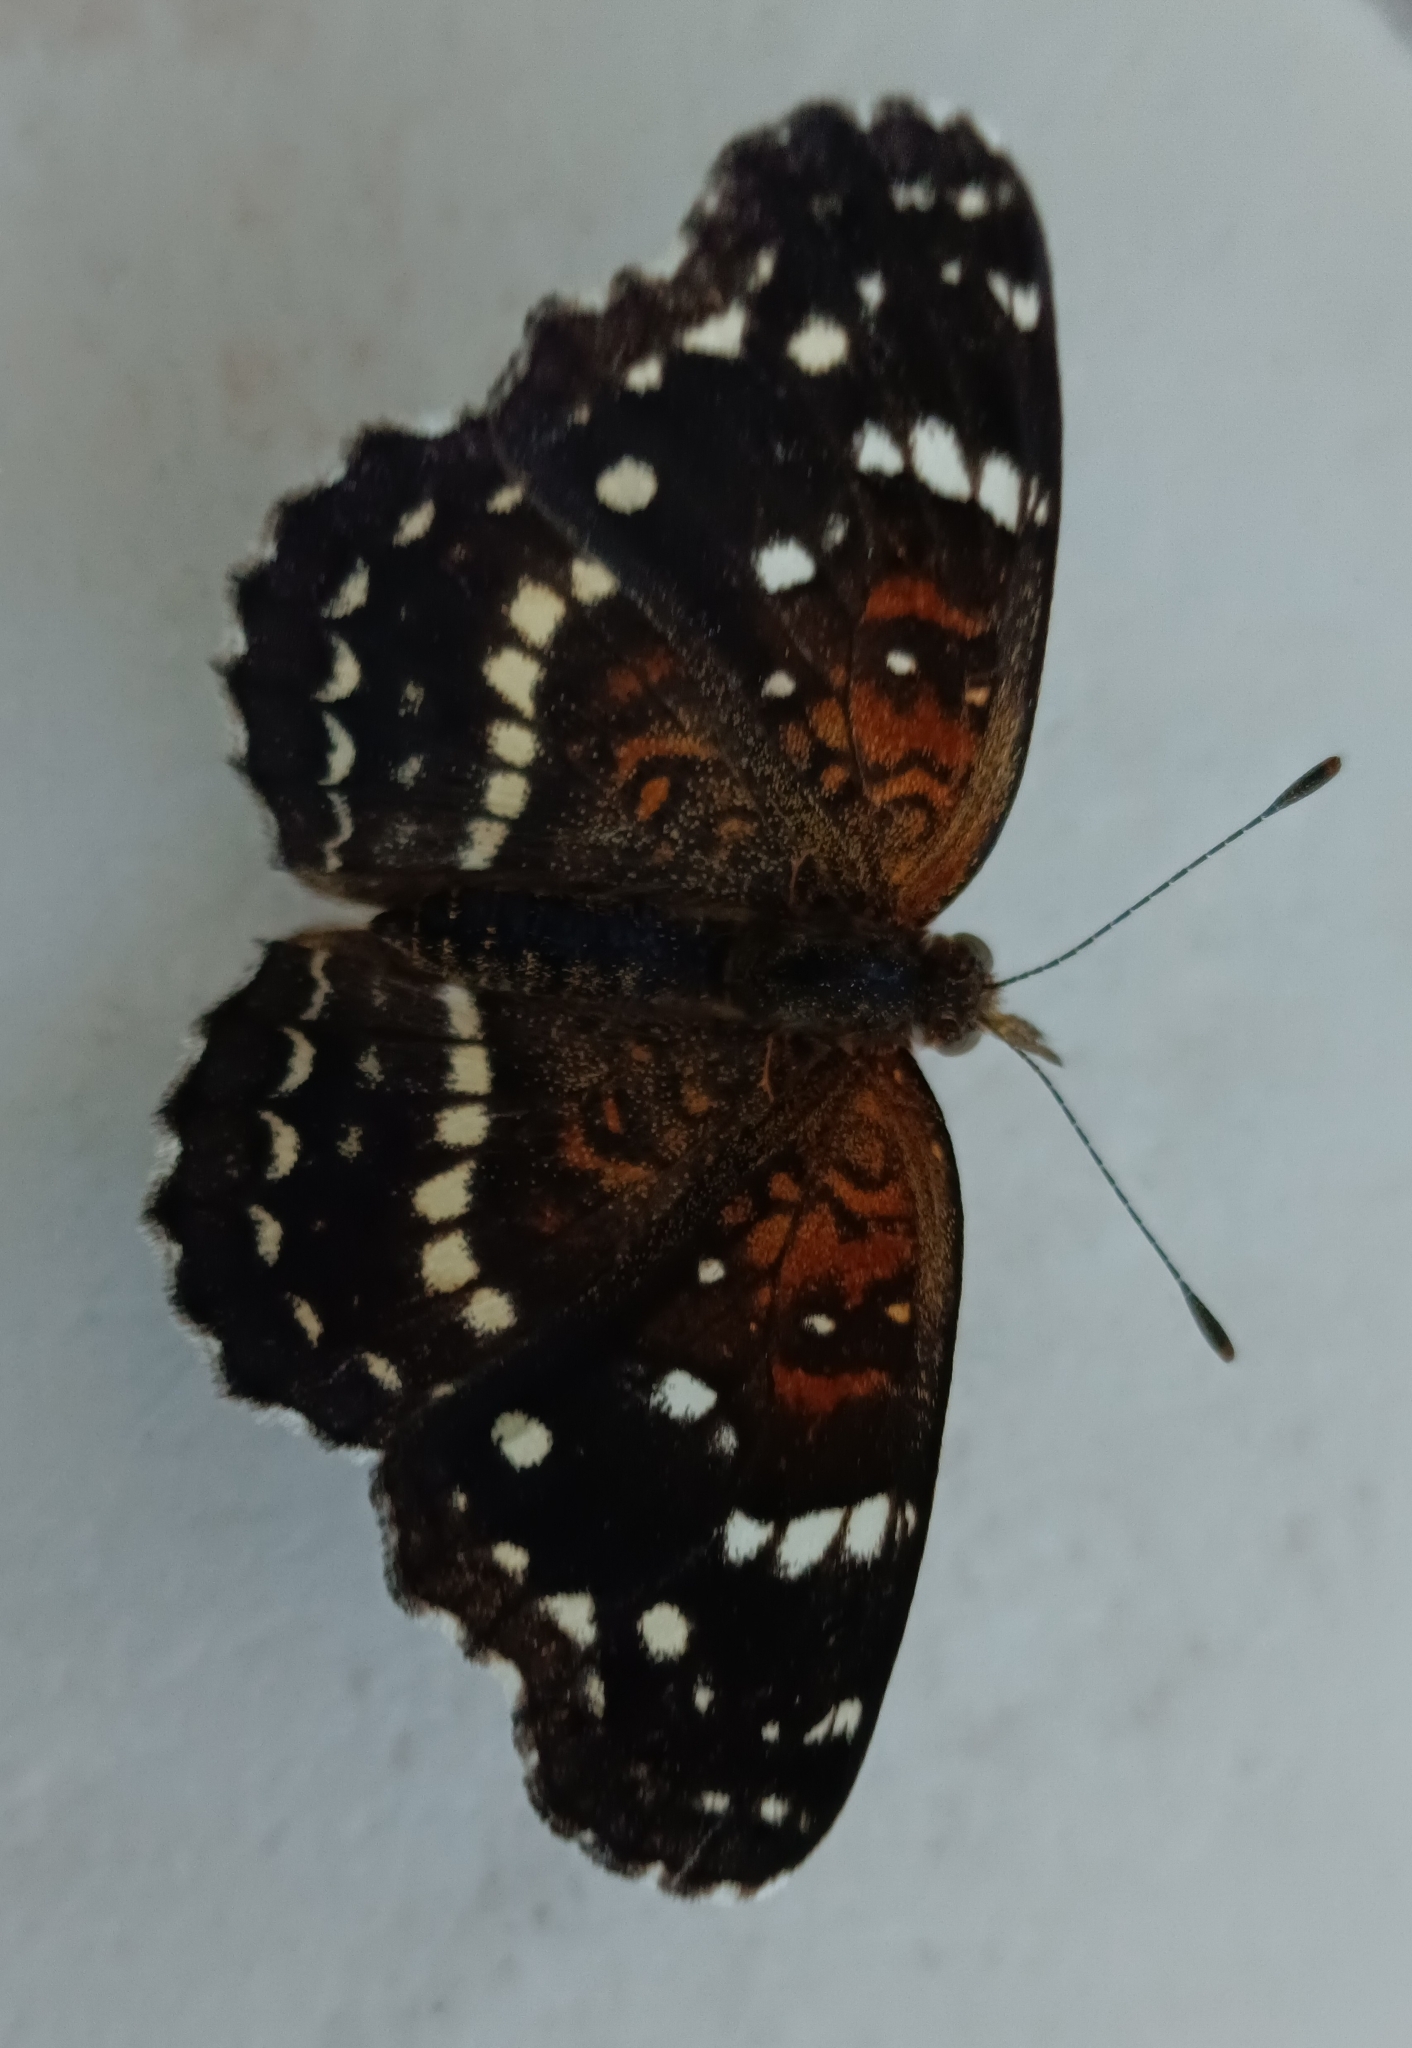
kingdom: Animalia
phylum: Arthropoda
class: Insecta
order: Lepidoptera
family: Nymphalidae
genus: Anthanassa
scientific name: Anthanassa texana
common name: Texan crescent
